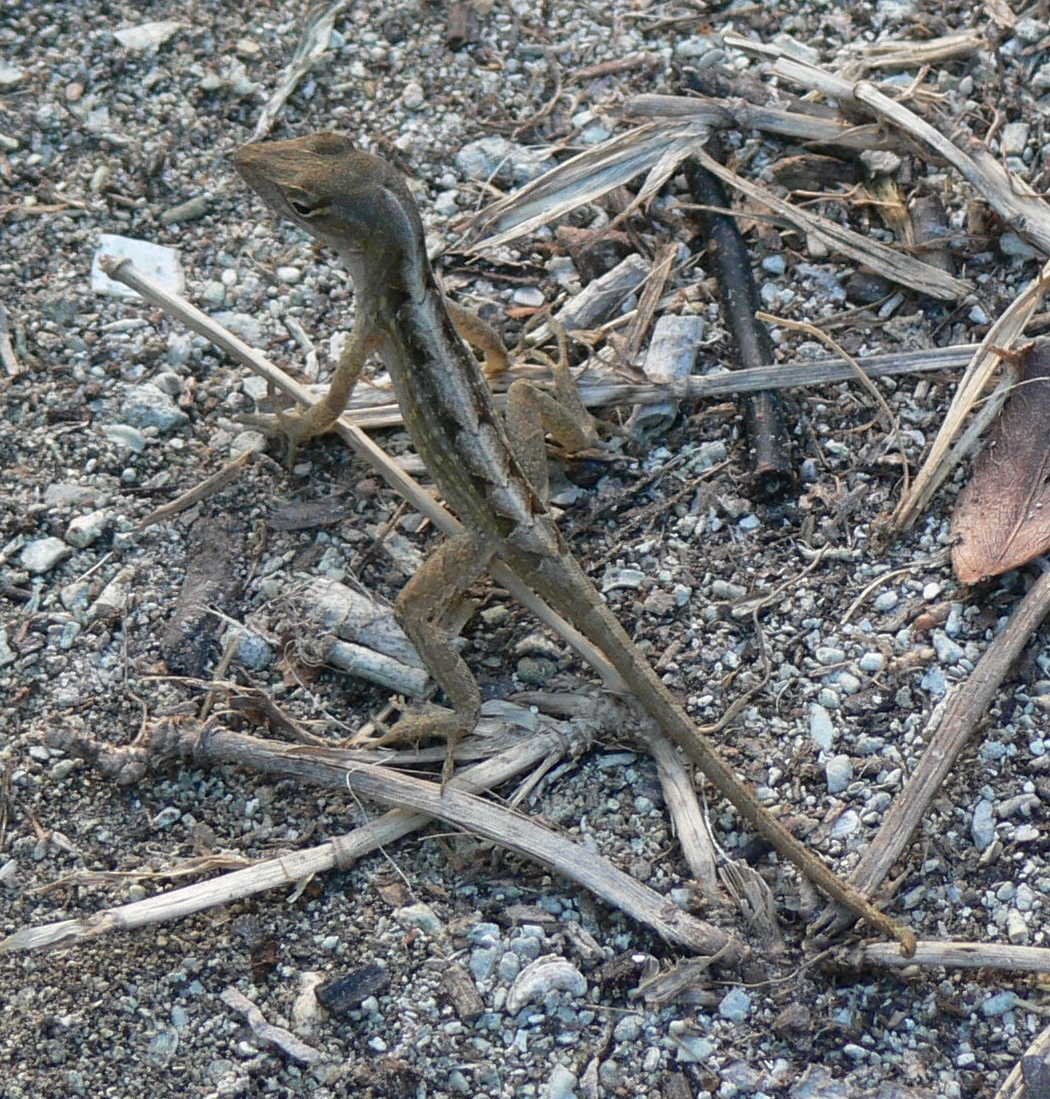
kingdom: Animalia
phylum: Chordata
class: Squamata
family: Dactyloidae
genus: Anolis
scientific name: Anolis sagrei
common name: Brown anole
